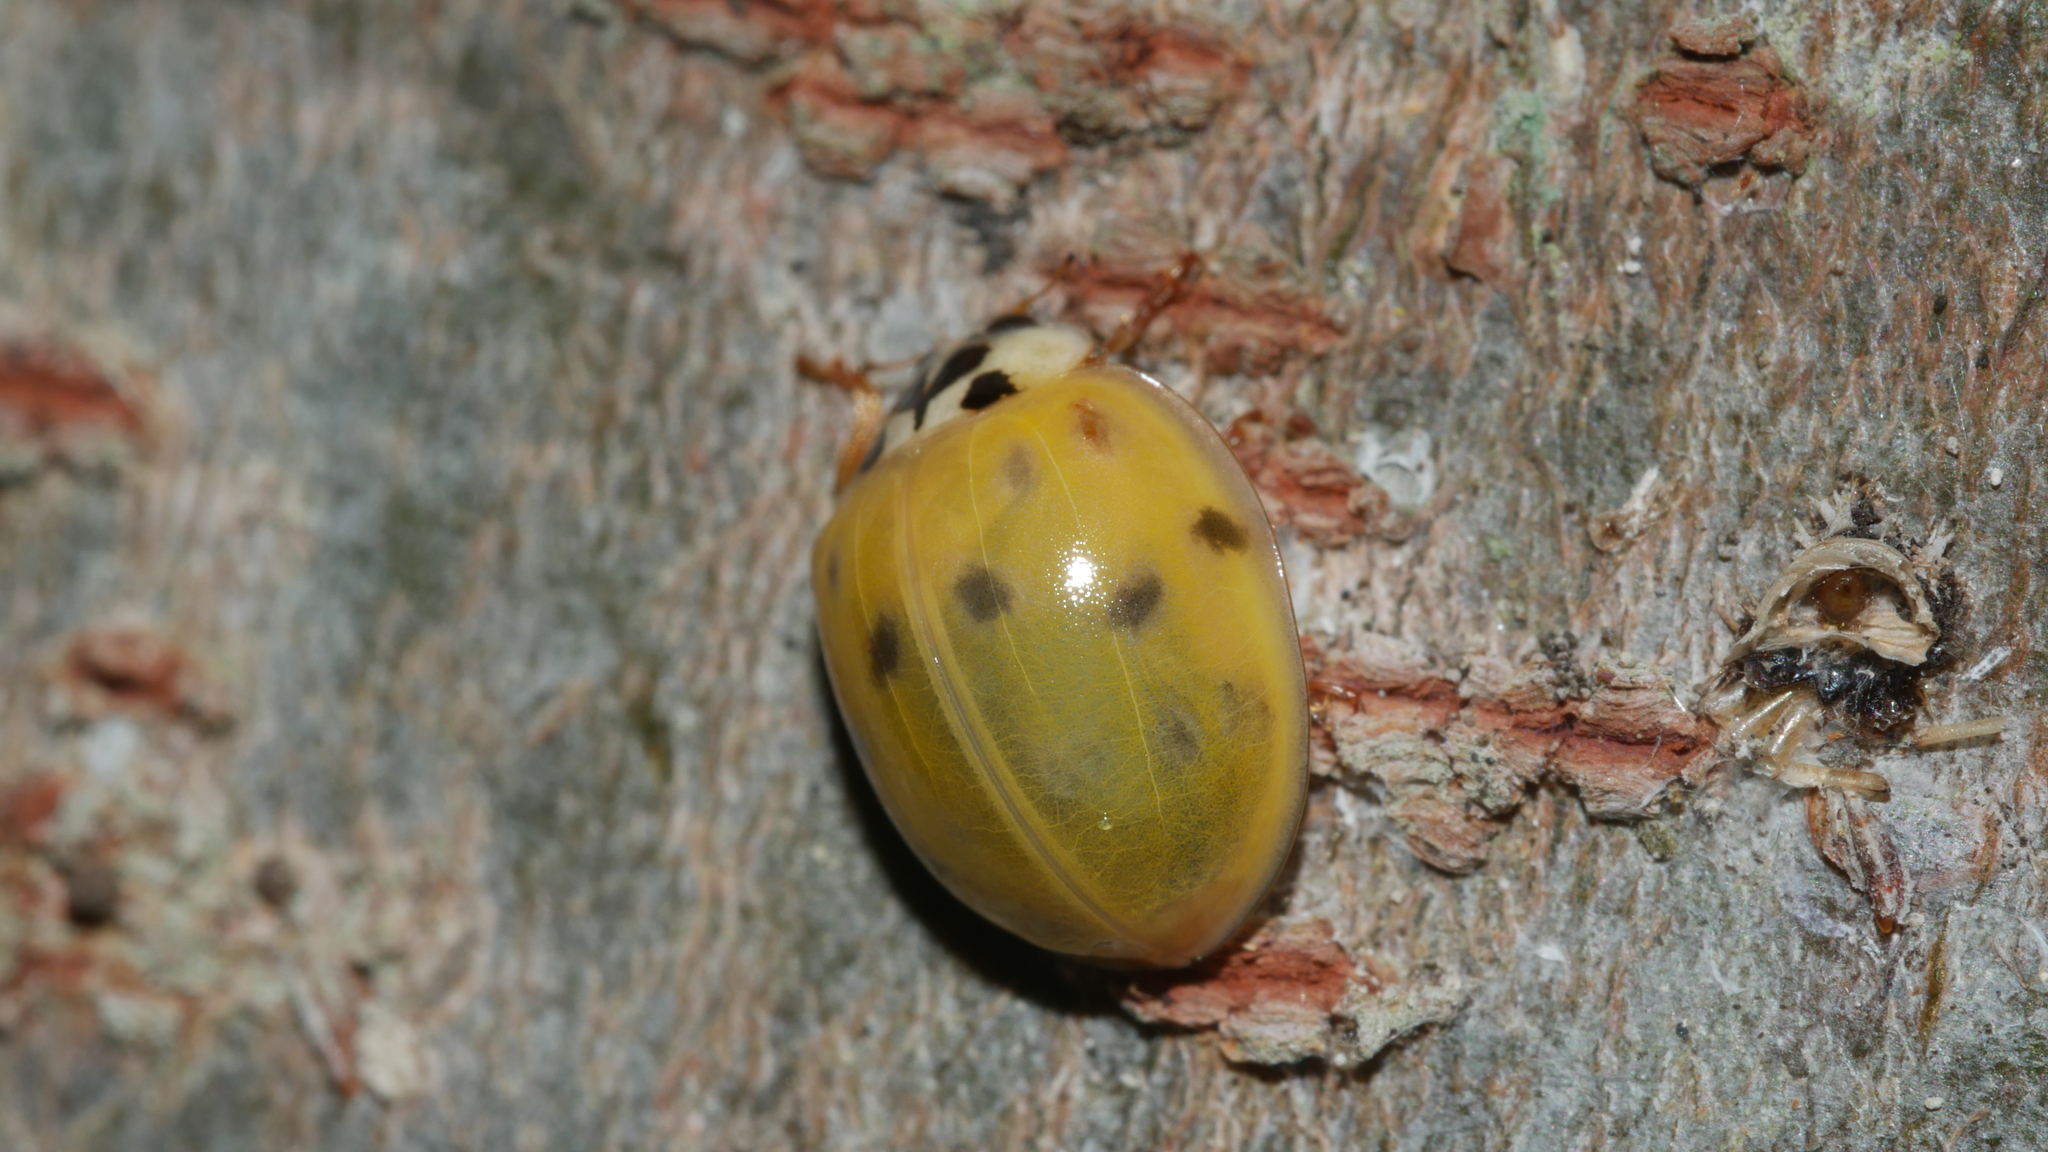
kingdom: Animalia
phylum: Arthropoda
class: Insecta
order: Coleoptera
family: Coccinellidae
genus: Harmonia
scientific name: Harmonia axyridis
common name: Harlequin ladybird
